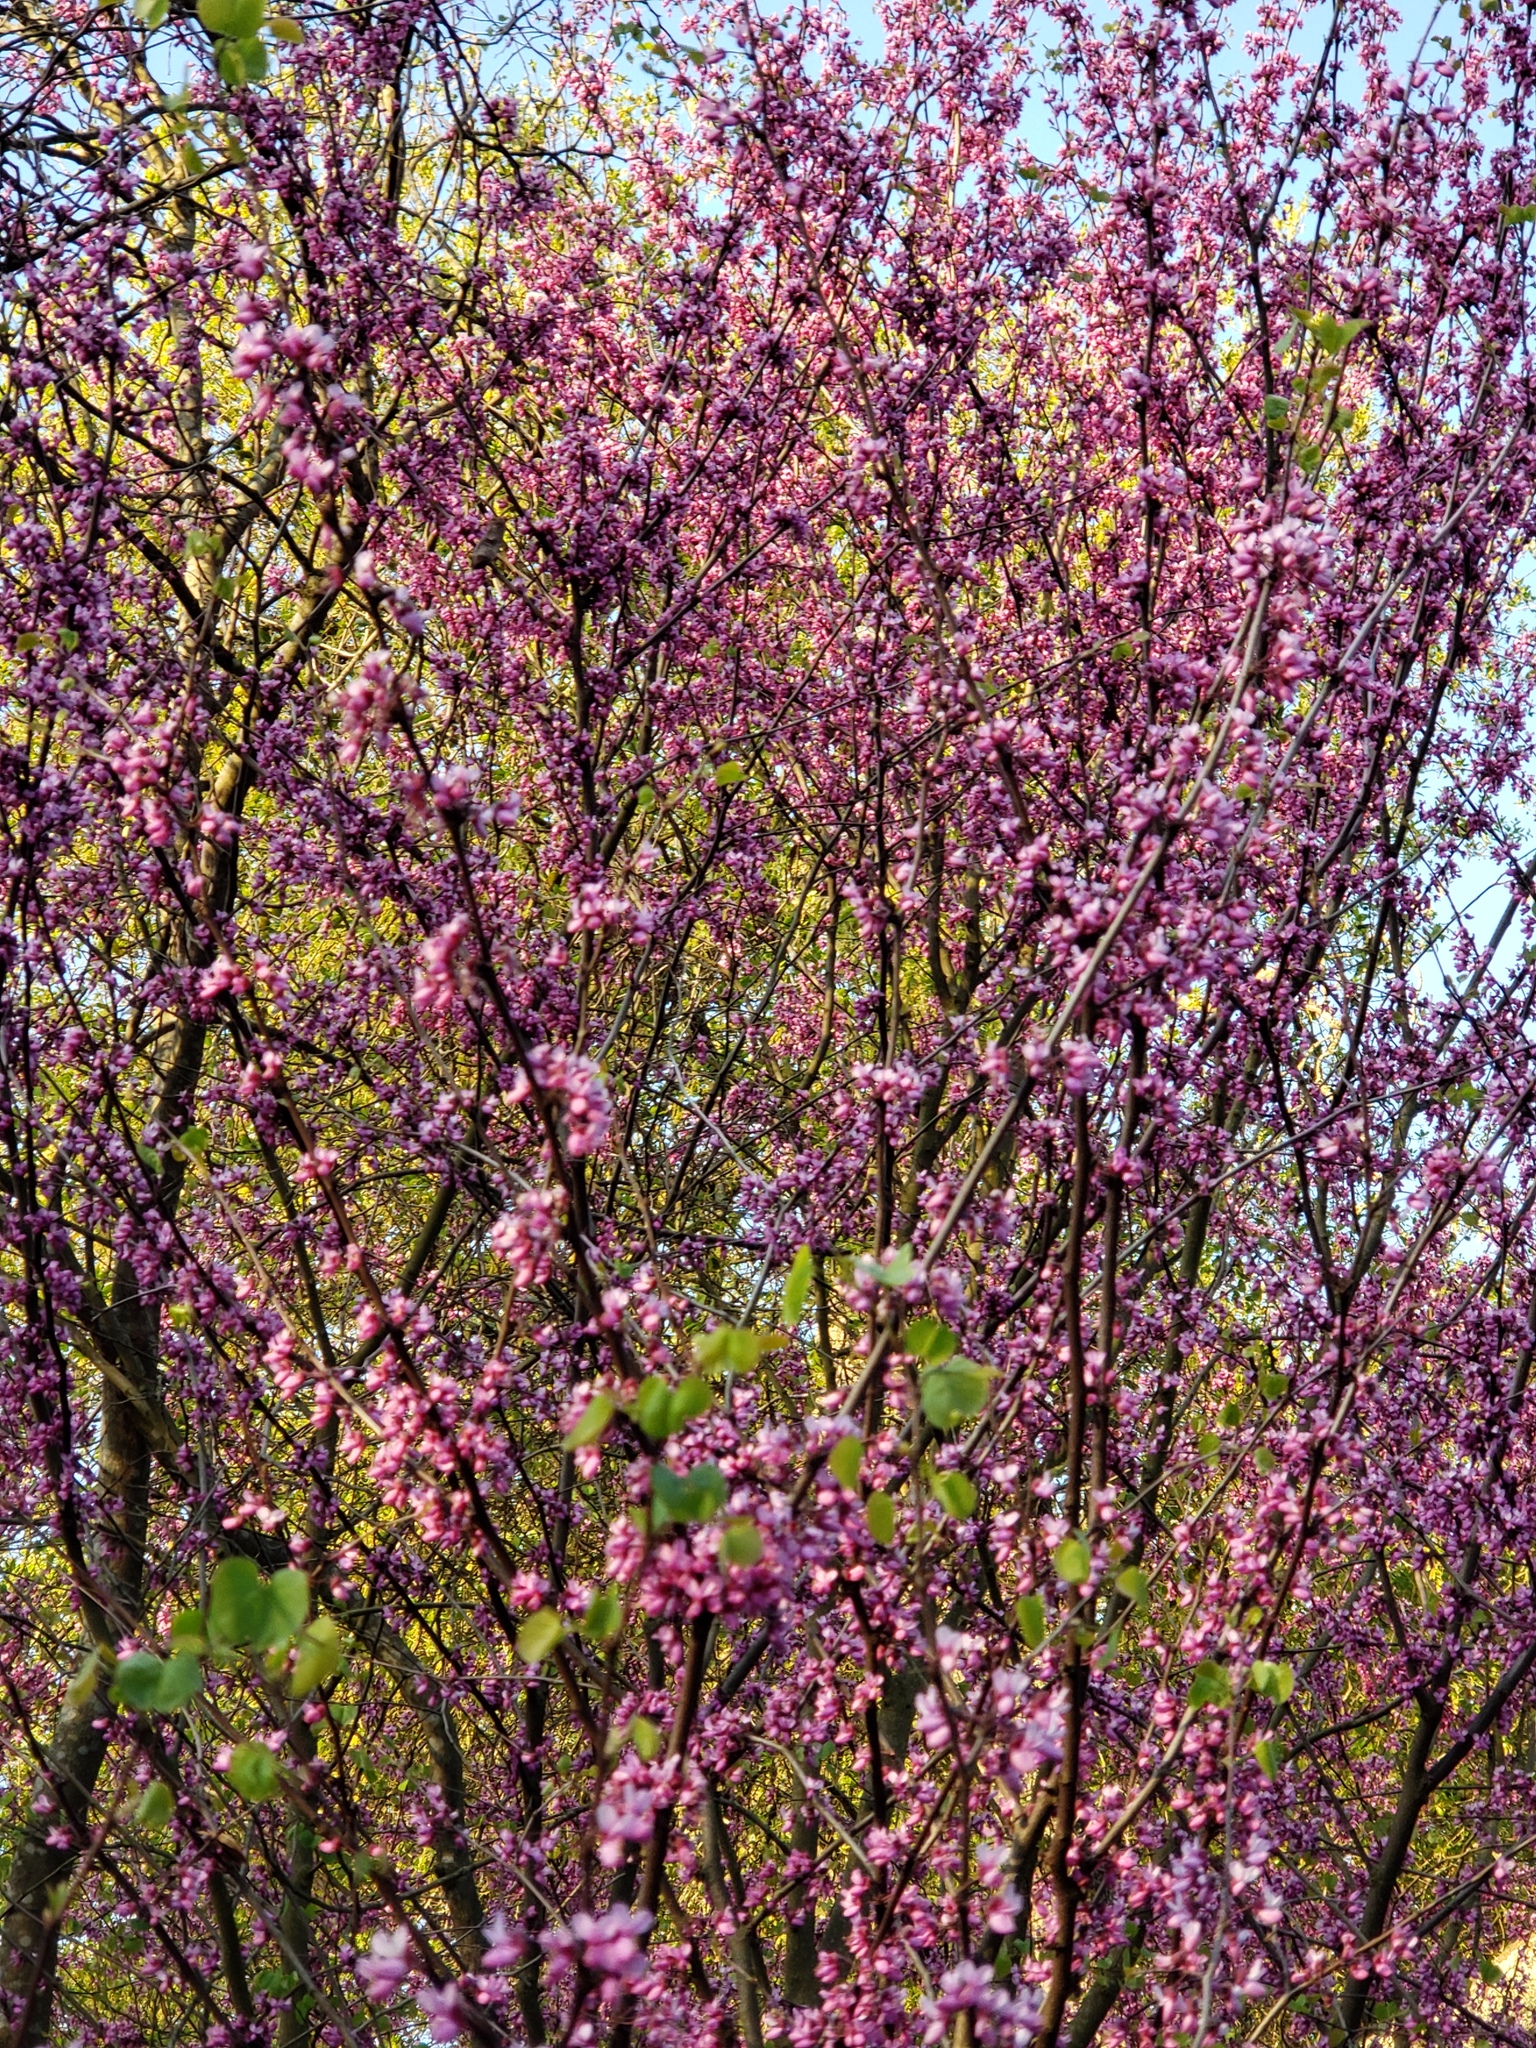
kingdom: Plantae
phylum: Tracheophyta
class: Magnoliopsida
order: Fabales
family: Fabaceae
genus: Cercis
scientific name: Cercis occidentalis
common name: California redbud
